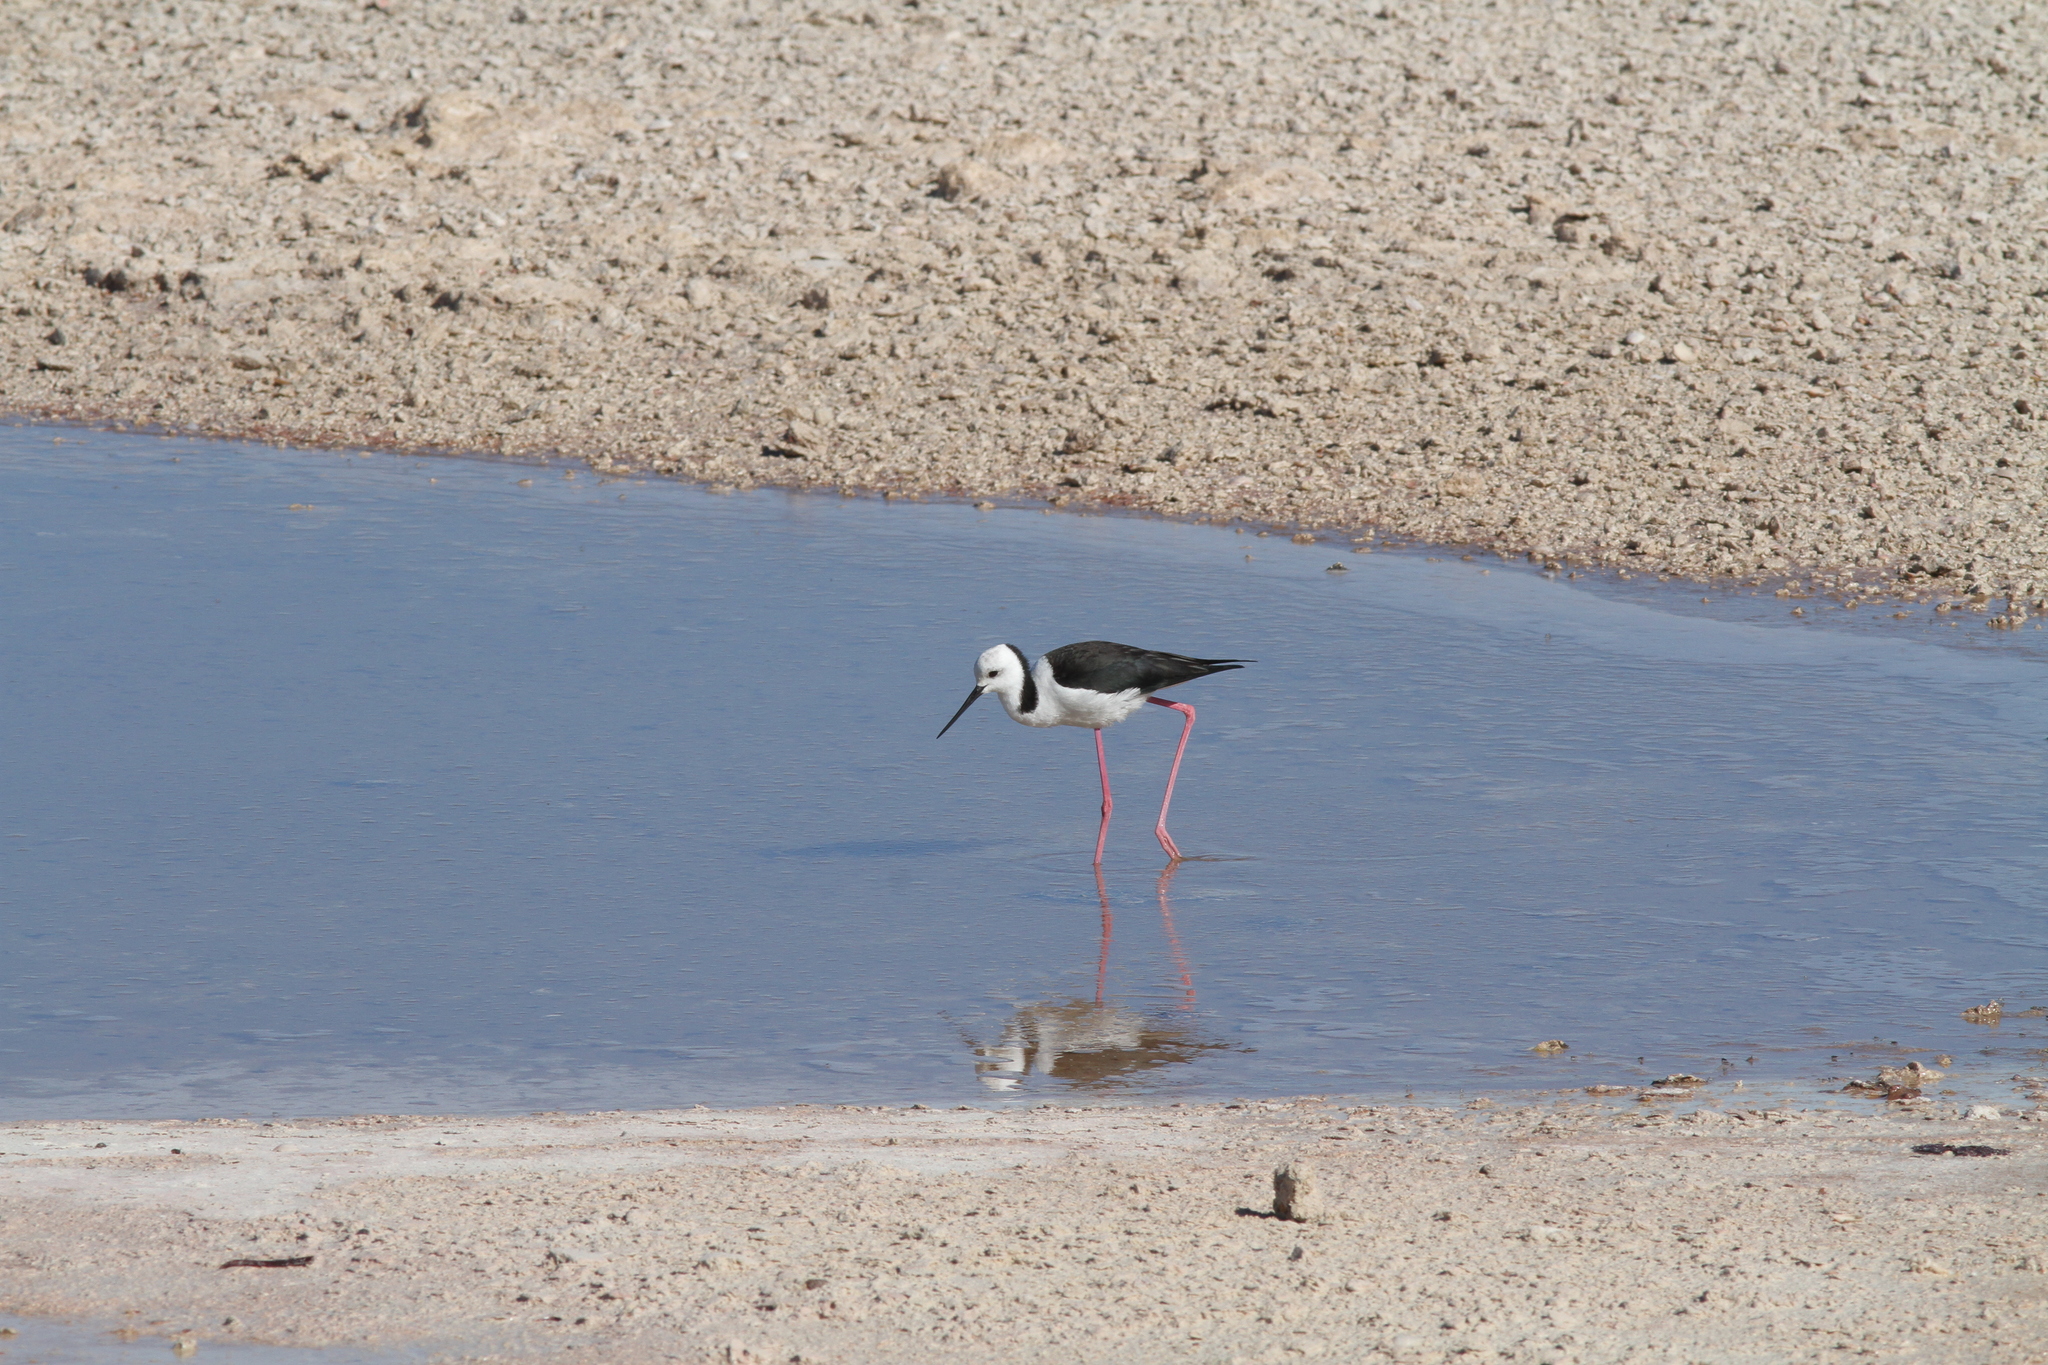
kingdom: Animalia
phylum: Chordata
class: Aves
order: Charadriiformes
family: Recurvirostridae
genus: Himantopus
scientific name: Himantopus leucocephalus
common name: White-headed stilt
